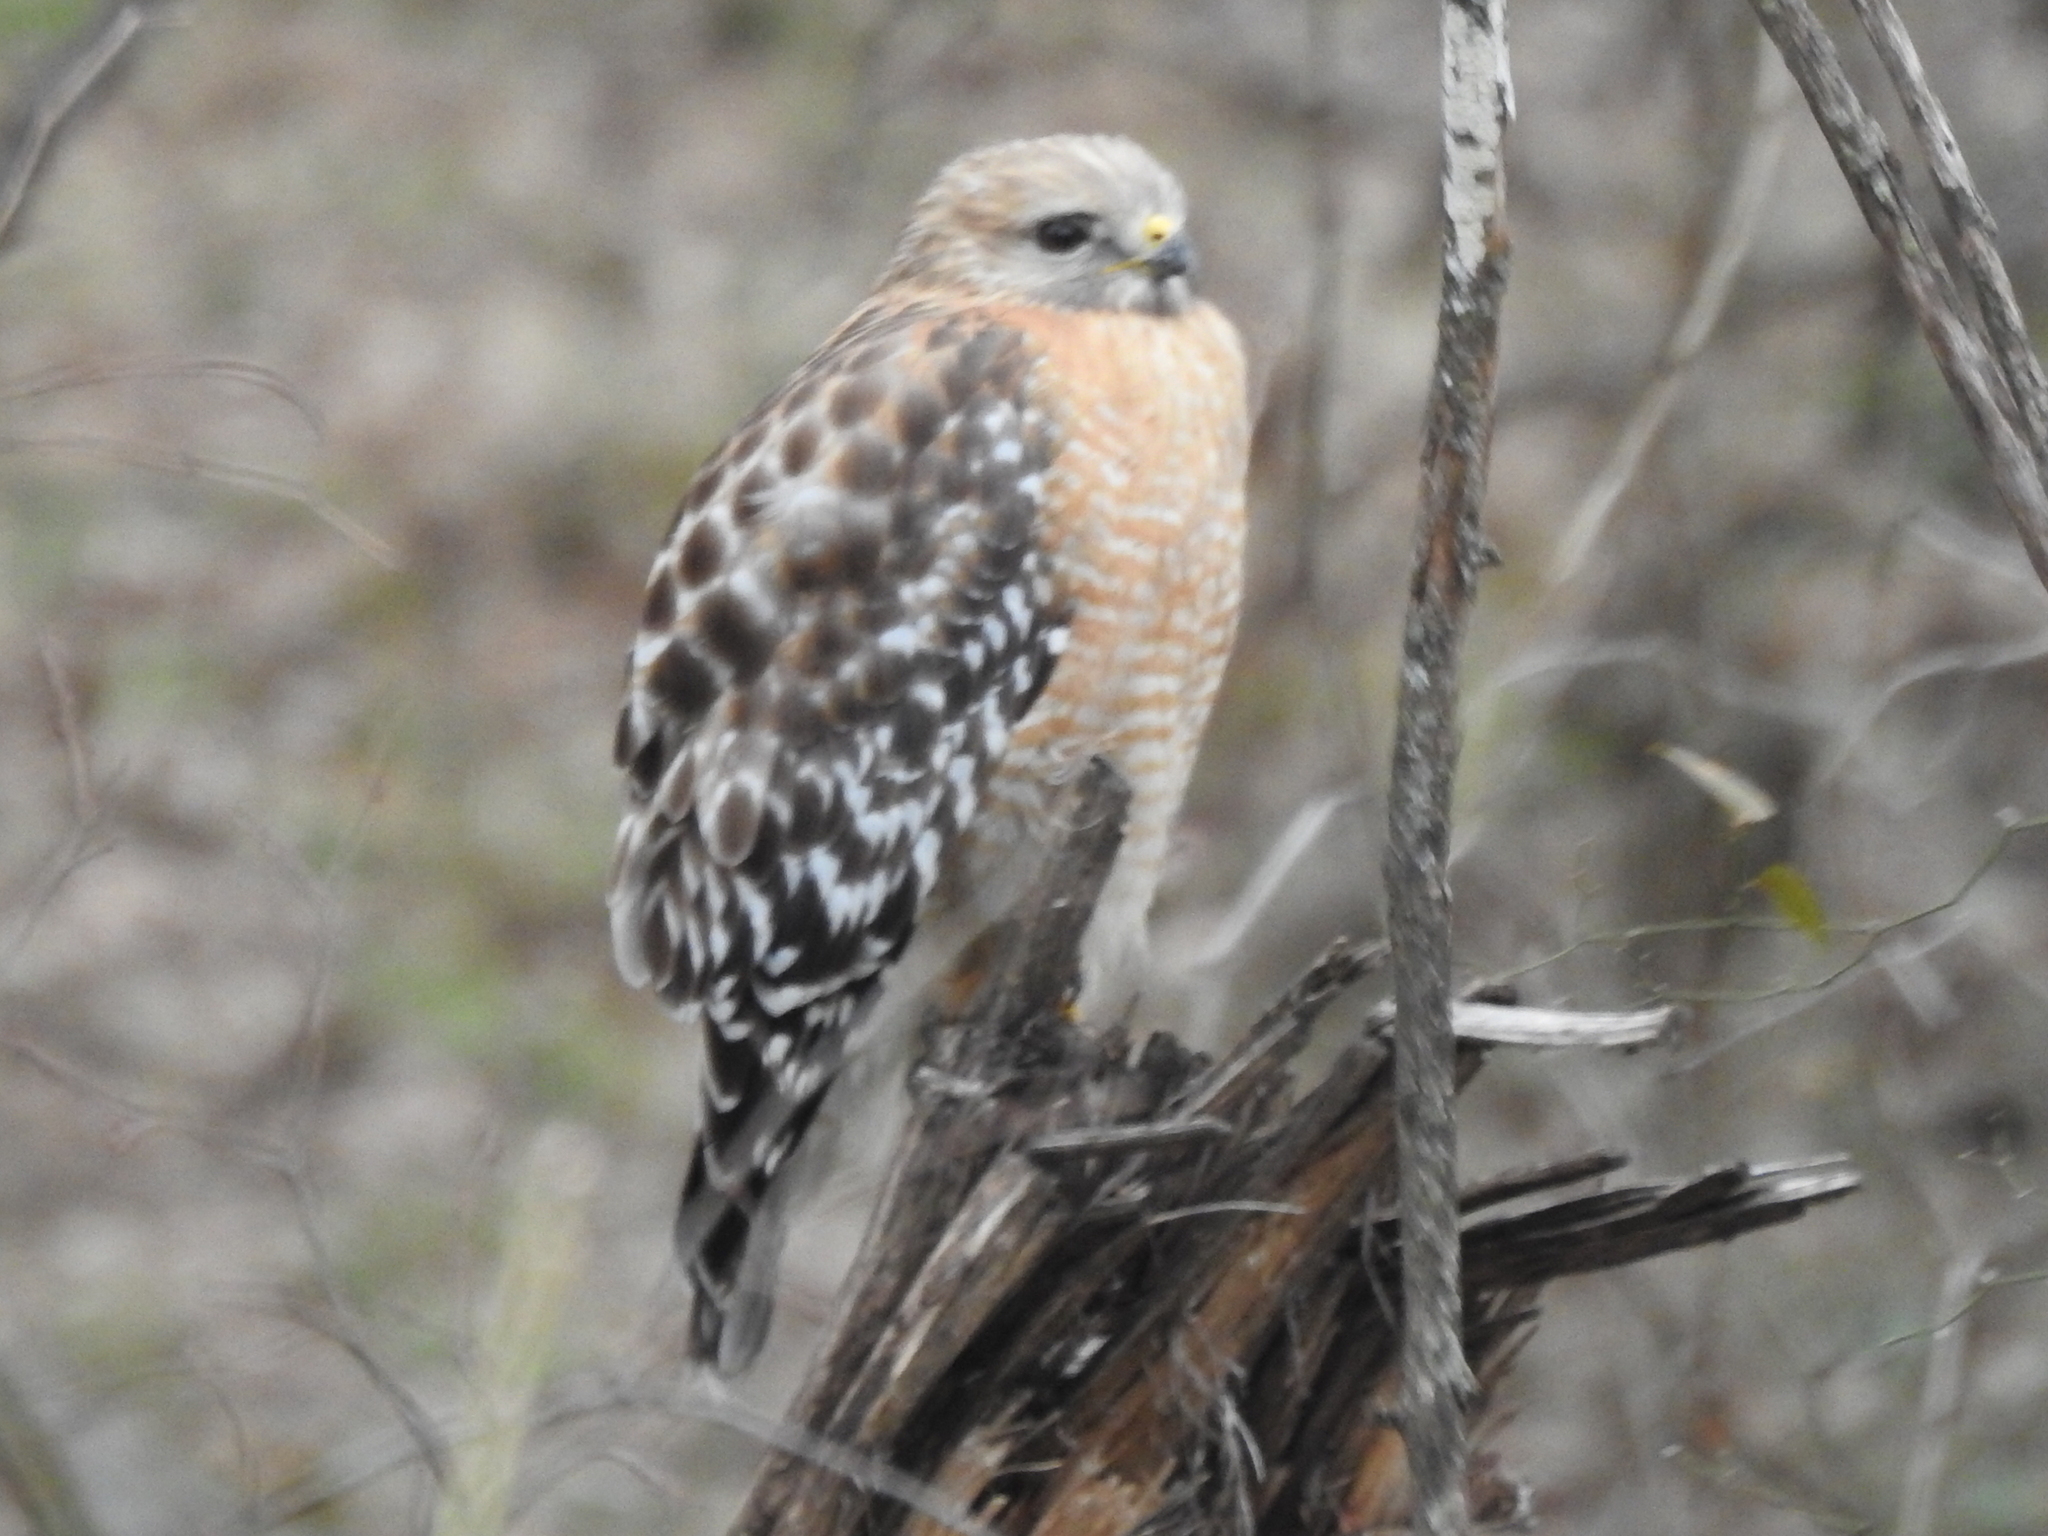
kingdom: Animalia
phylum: Chordata
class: Aves
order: Accipitriformes
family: Accipitridae
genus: Buteo
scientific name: Buteo lineatus
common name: Red-shouldered hawk
